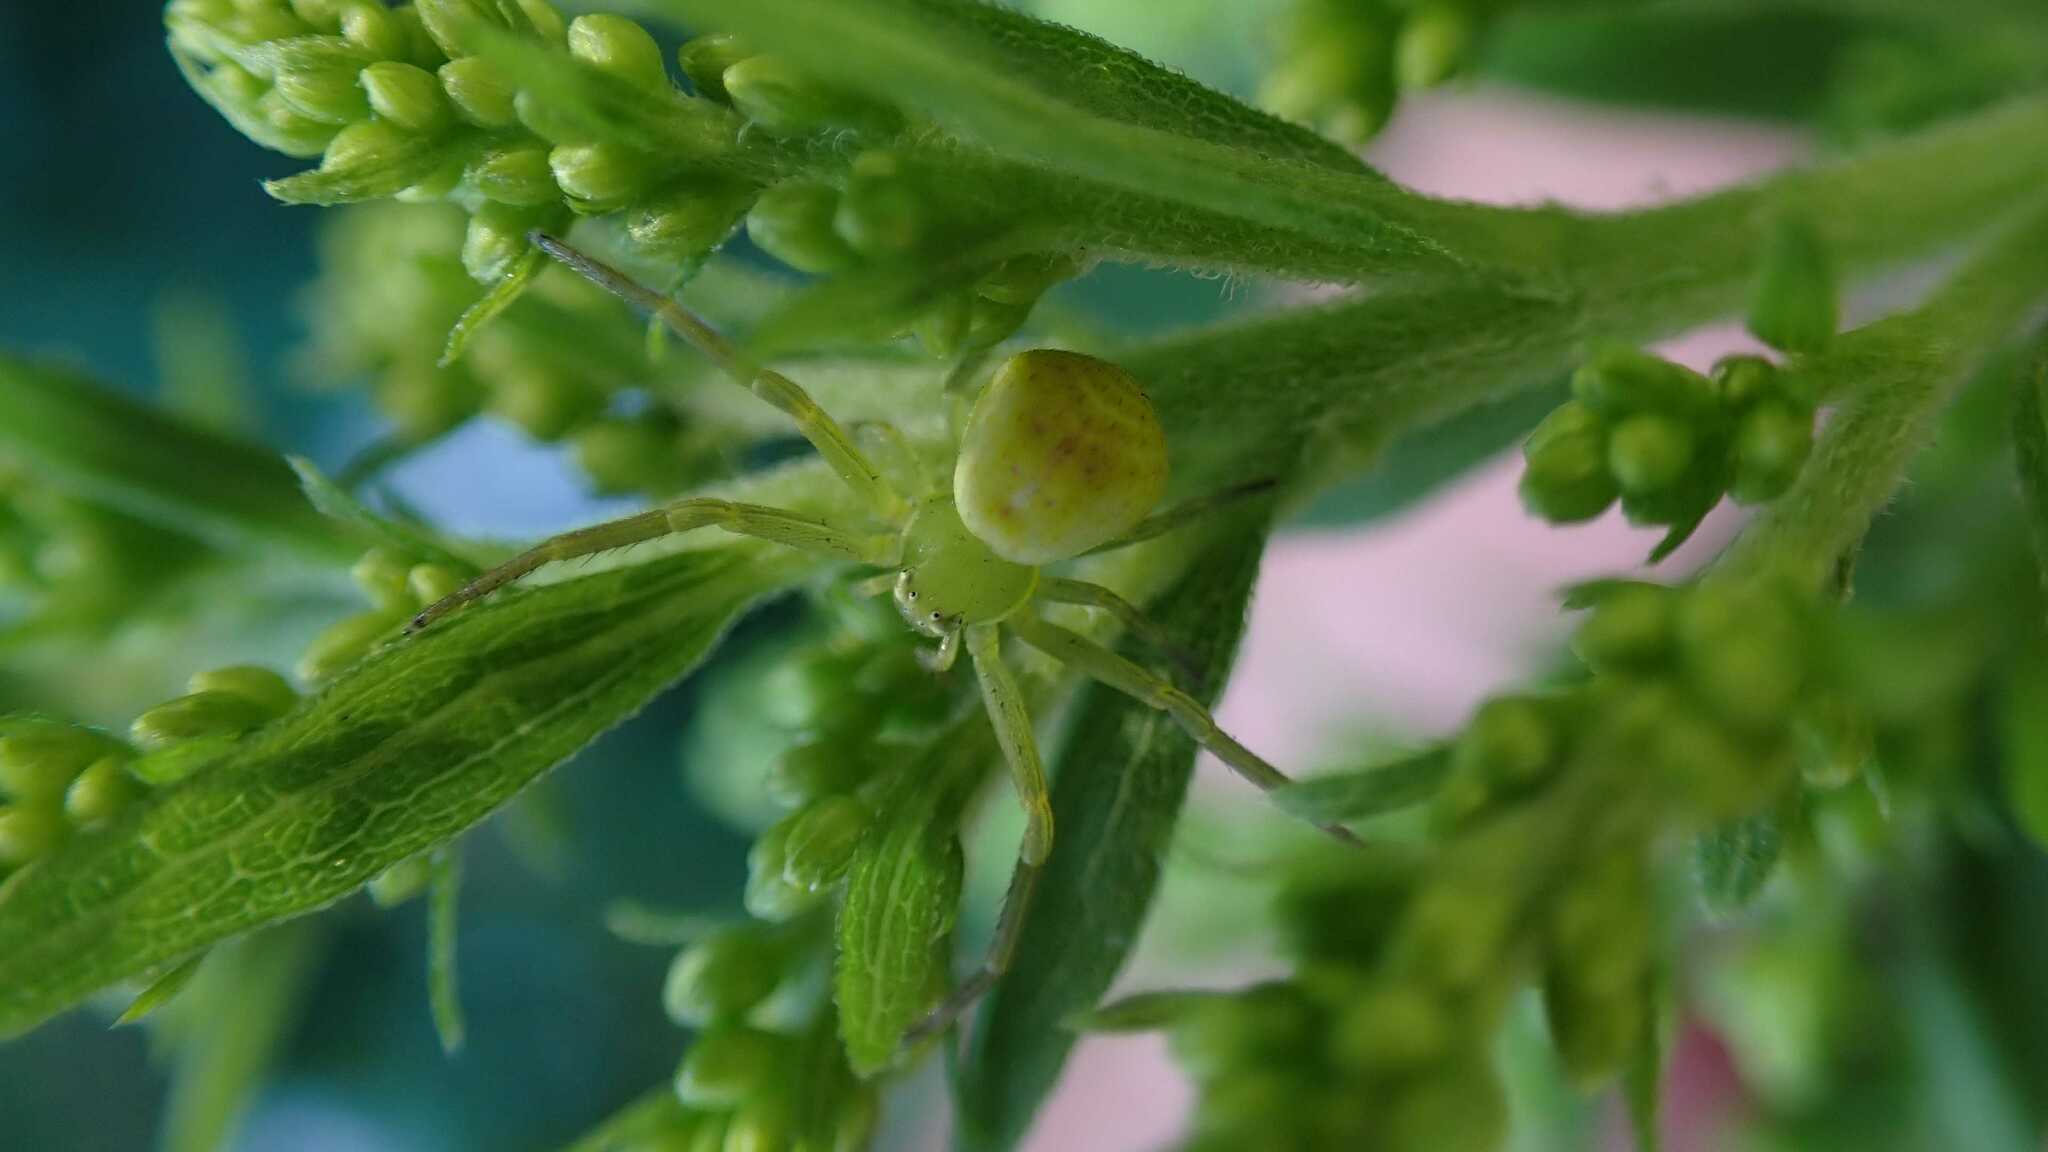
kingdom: Animalia
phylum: Arthropoda
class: Arachnida
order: Araneae
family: Thomisidae
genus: Ebrechtella
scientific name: Ebrechtella tricuspidata
